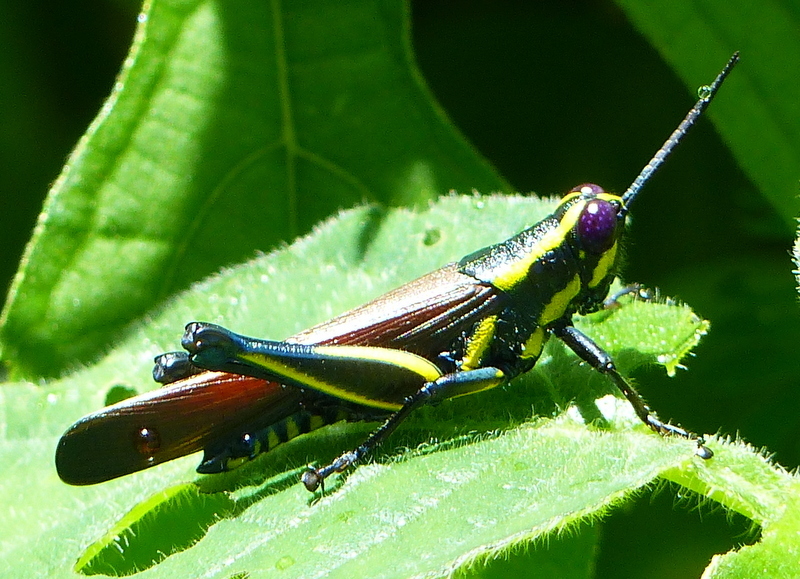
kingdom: Animalia
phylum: Arthropoda
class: Insecta
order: Orthoptera
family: Acrididae
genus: Eupropacris
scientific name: Eupropacris cylindricollis
